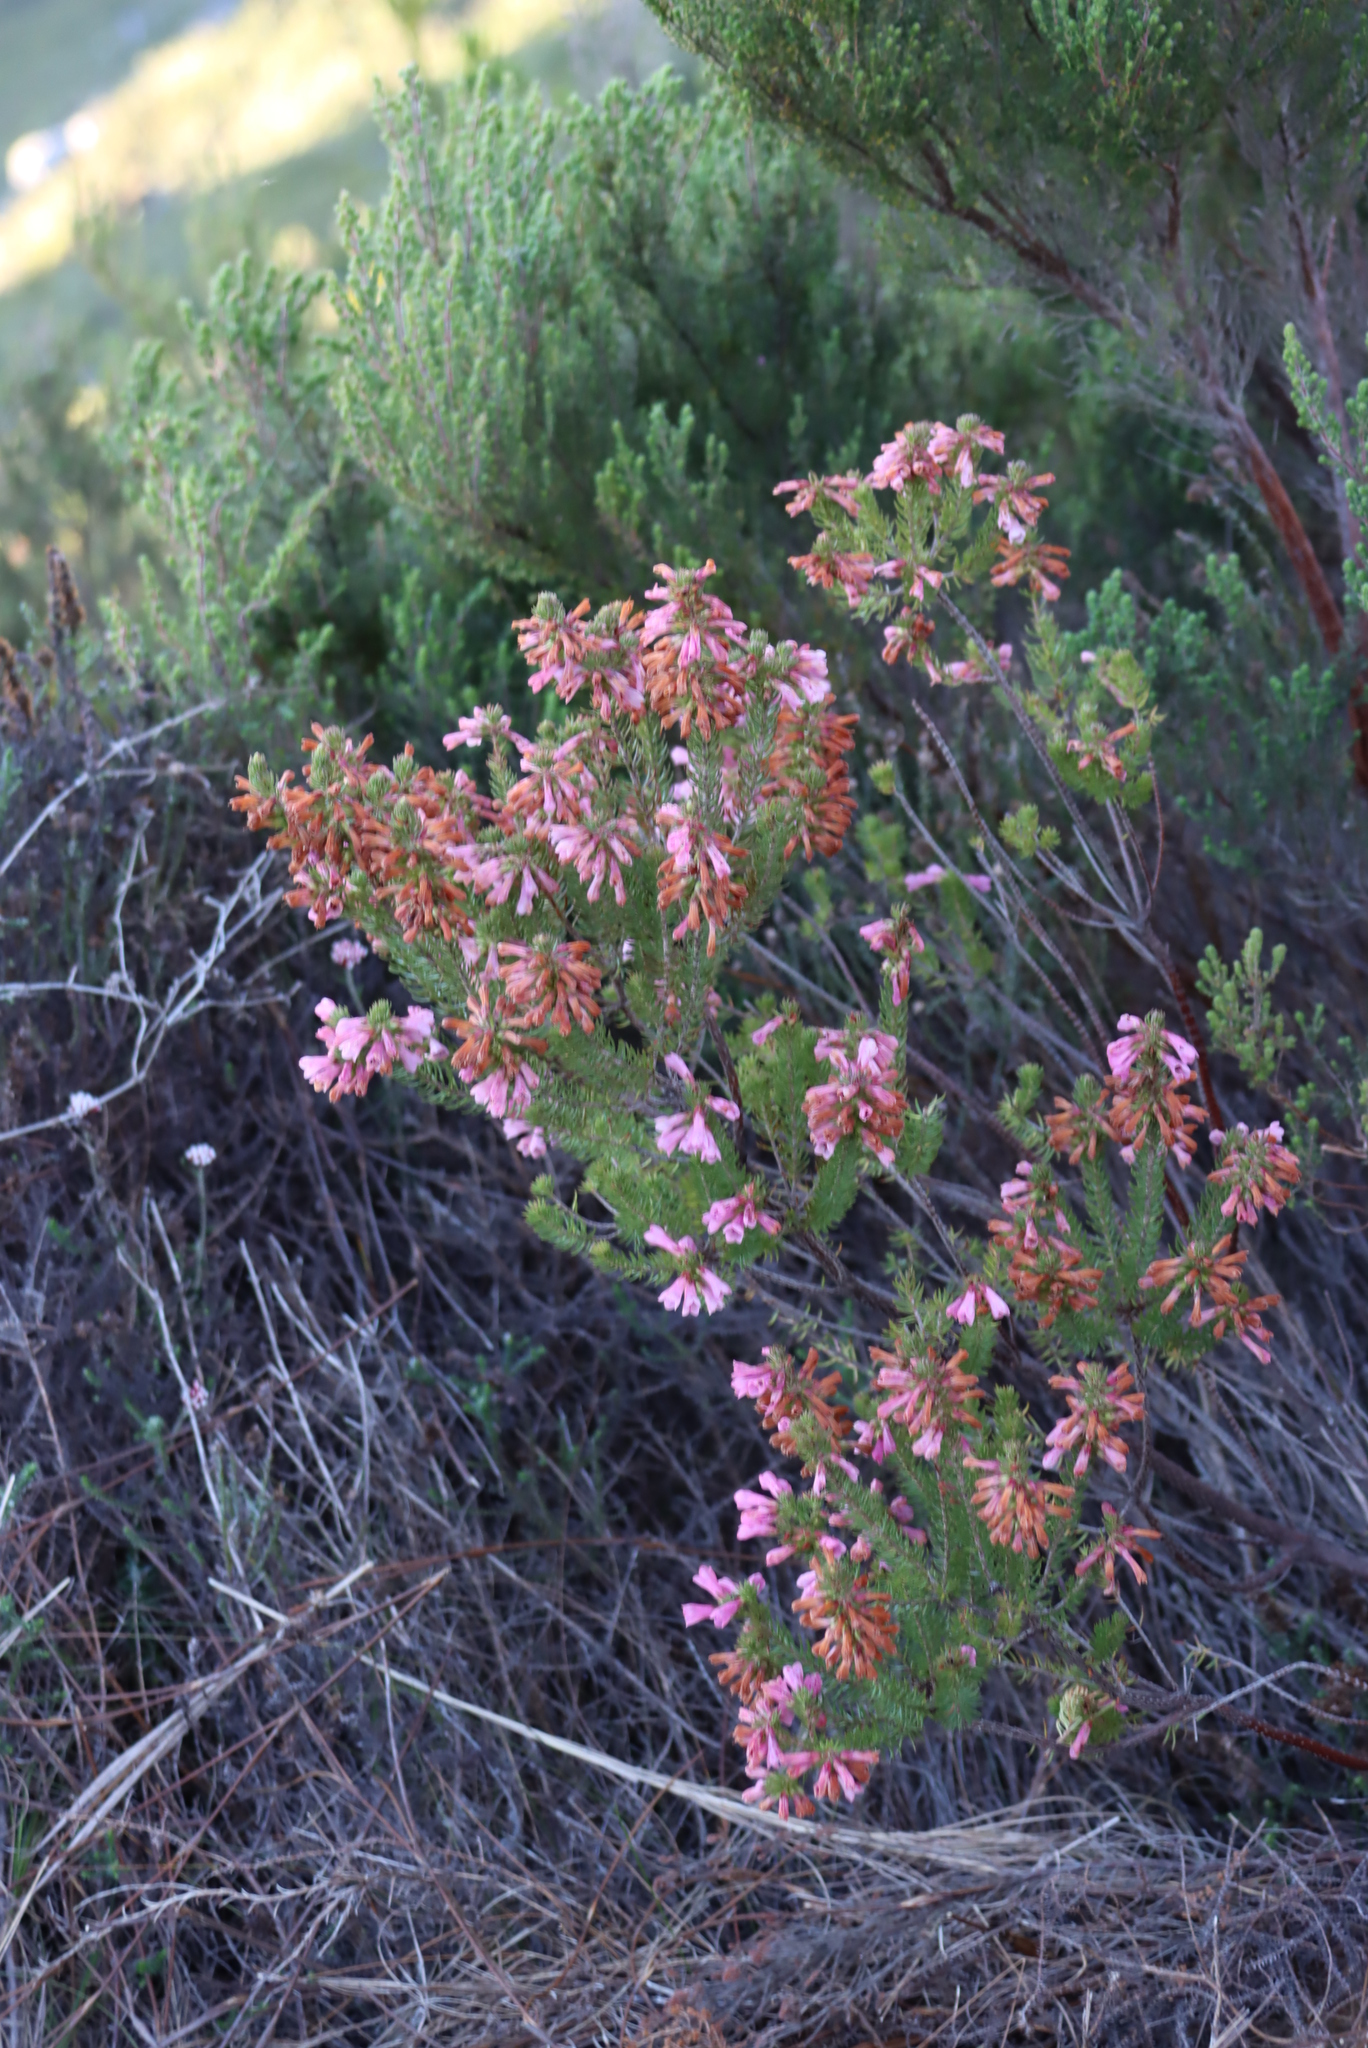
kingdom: Plantae
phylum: Tracheophyta
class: Magnoliopsida
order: Ericales
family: Ericaceae
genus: Erica
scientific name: Erica abietina
